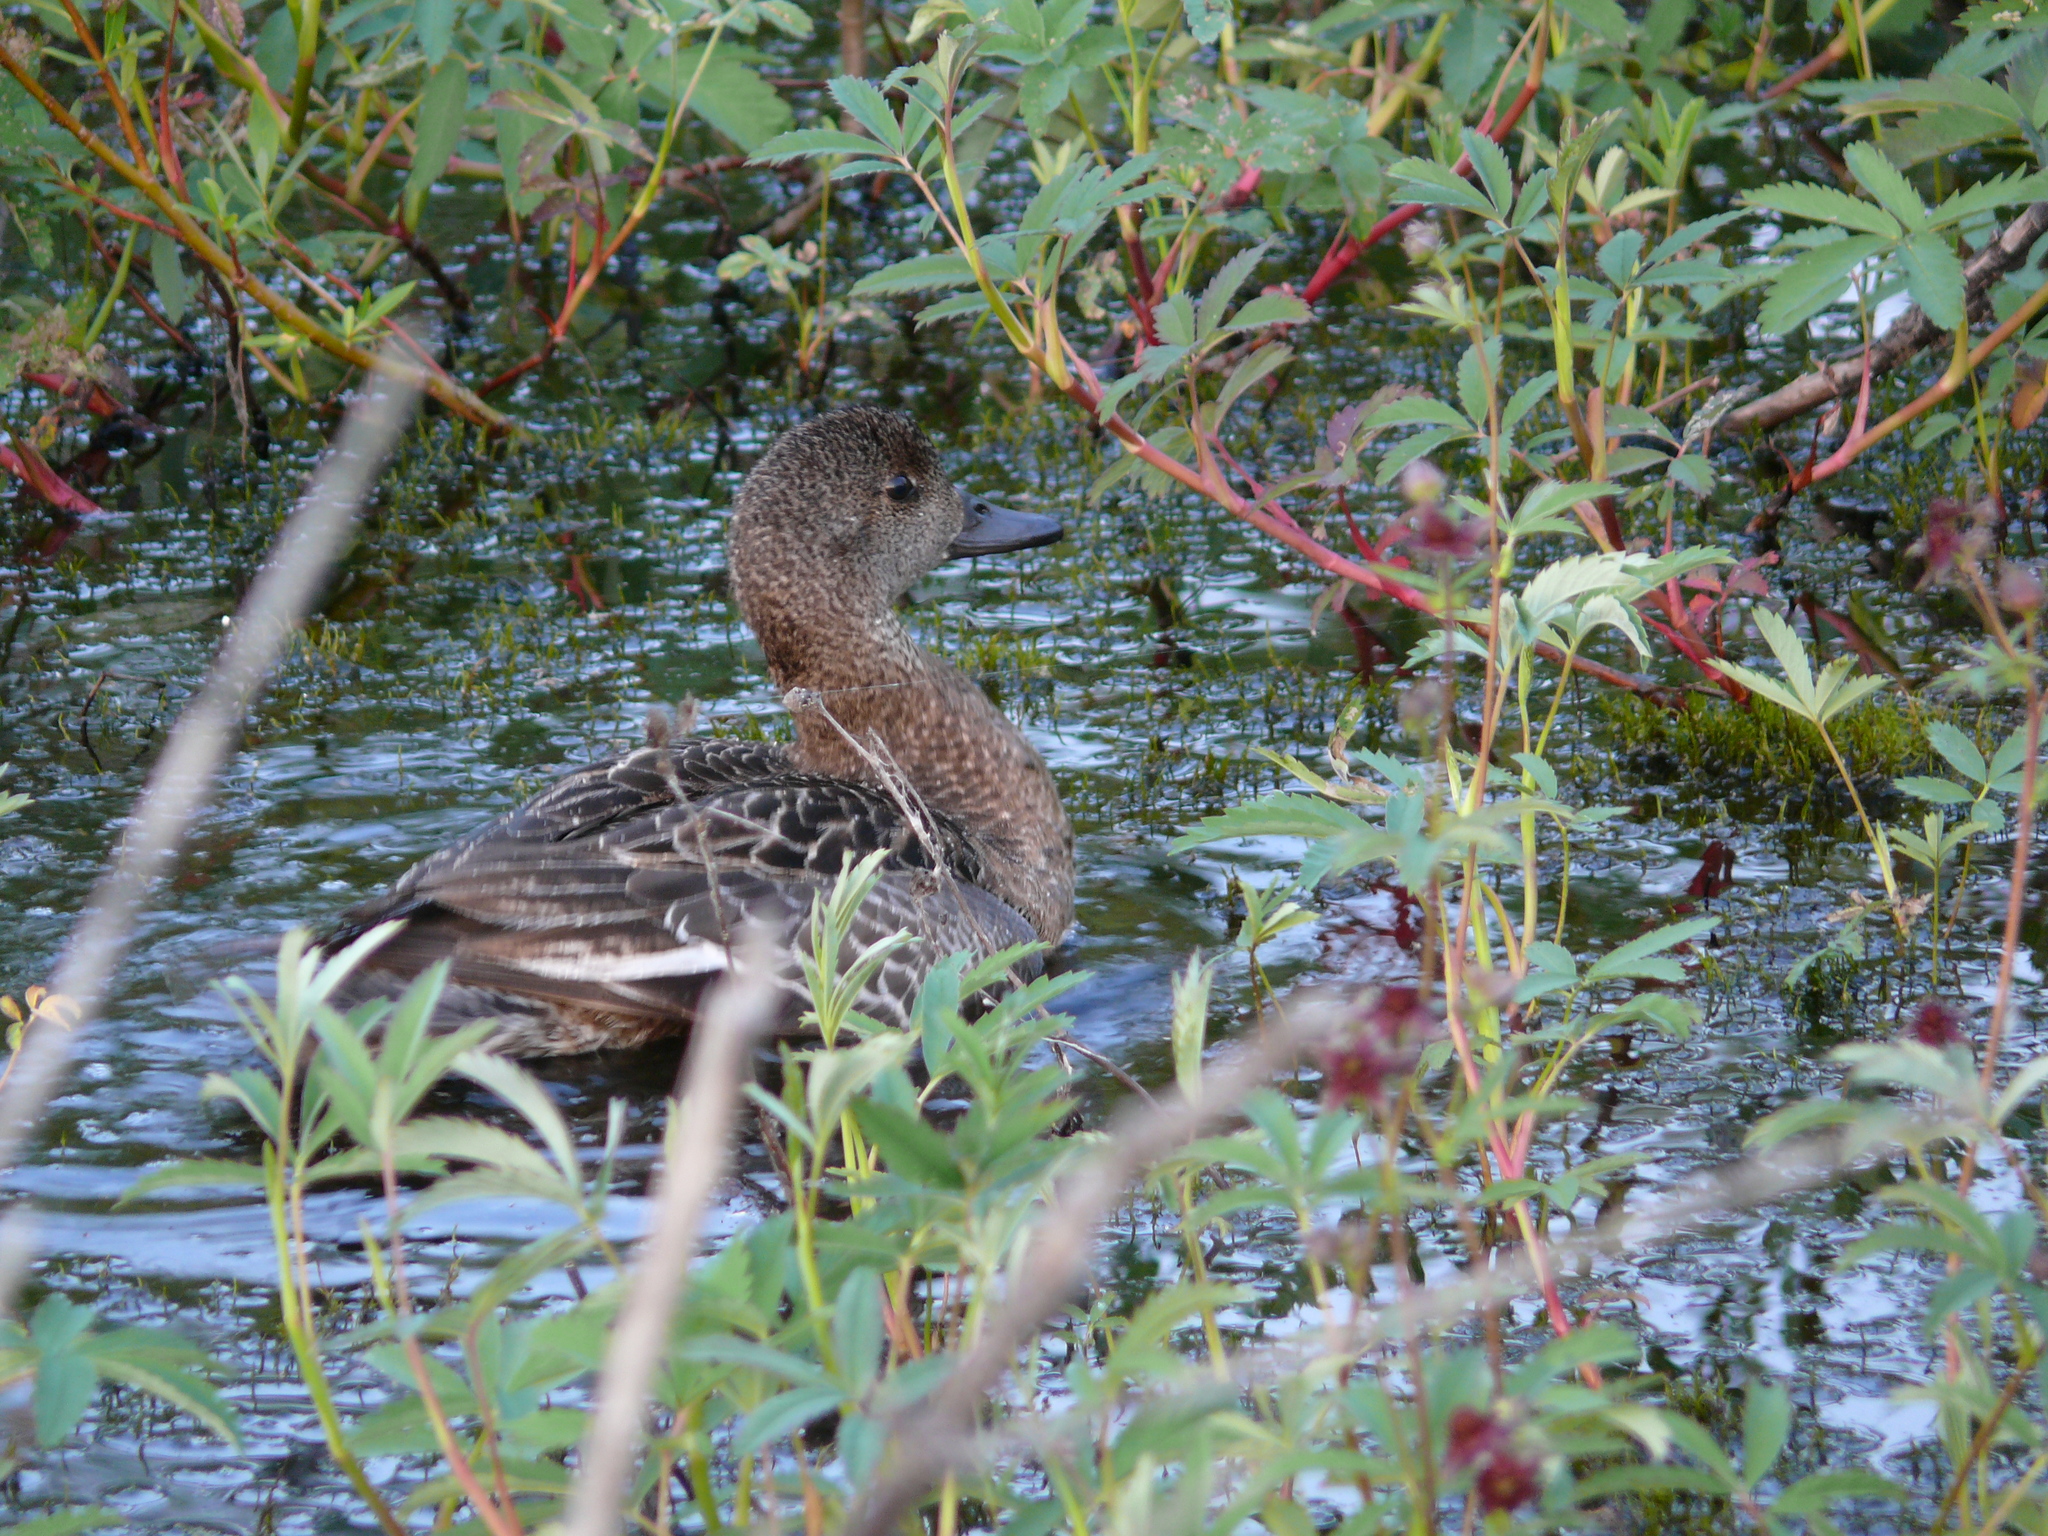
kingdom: Animalia
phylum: Chordata
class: Aves
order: Anseriformes
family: Anatidae
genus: Mareca
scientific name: Mareca penelope
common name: Eurasian wigeon
